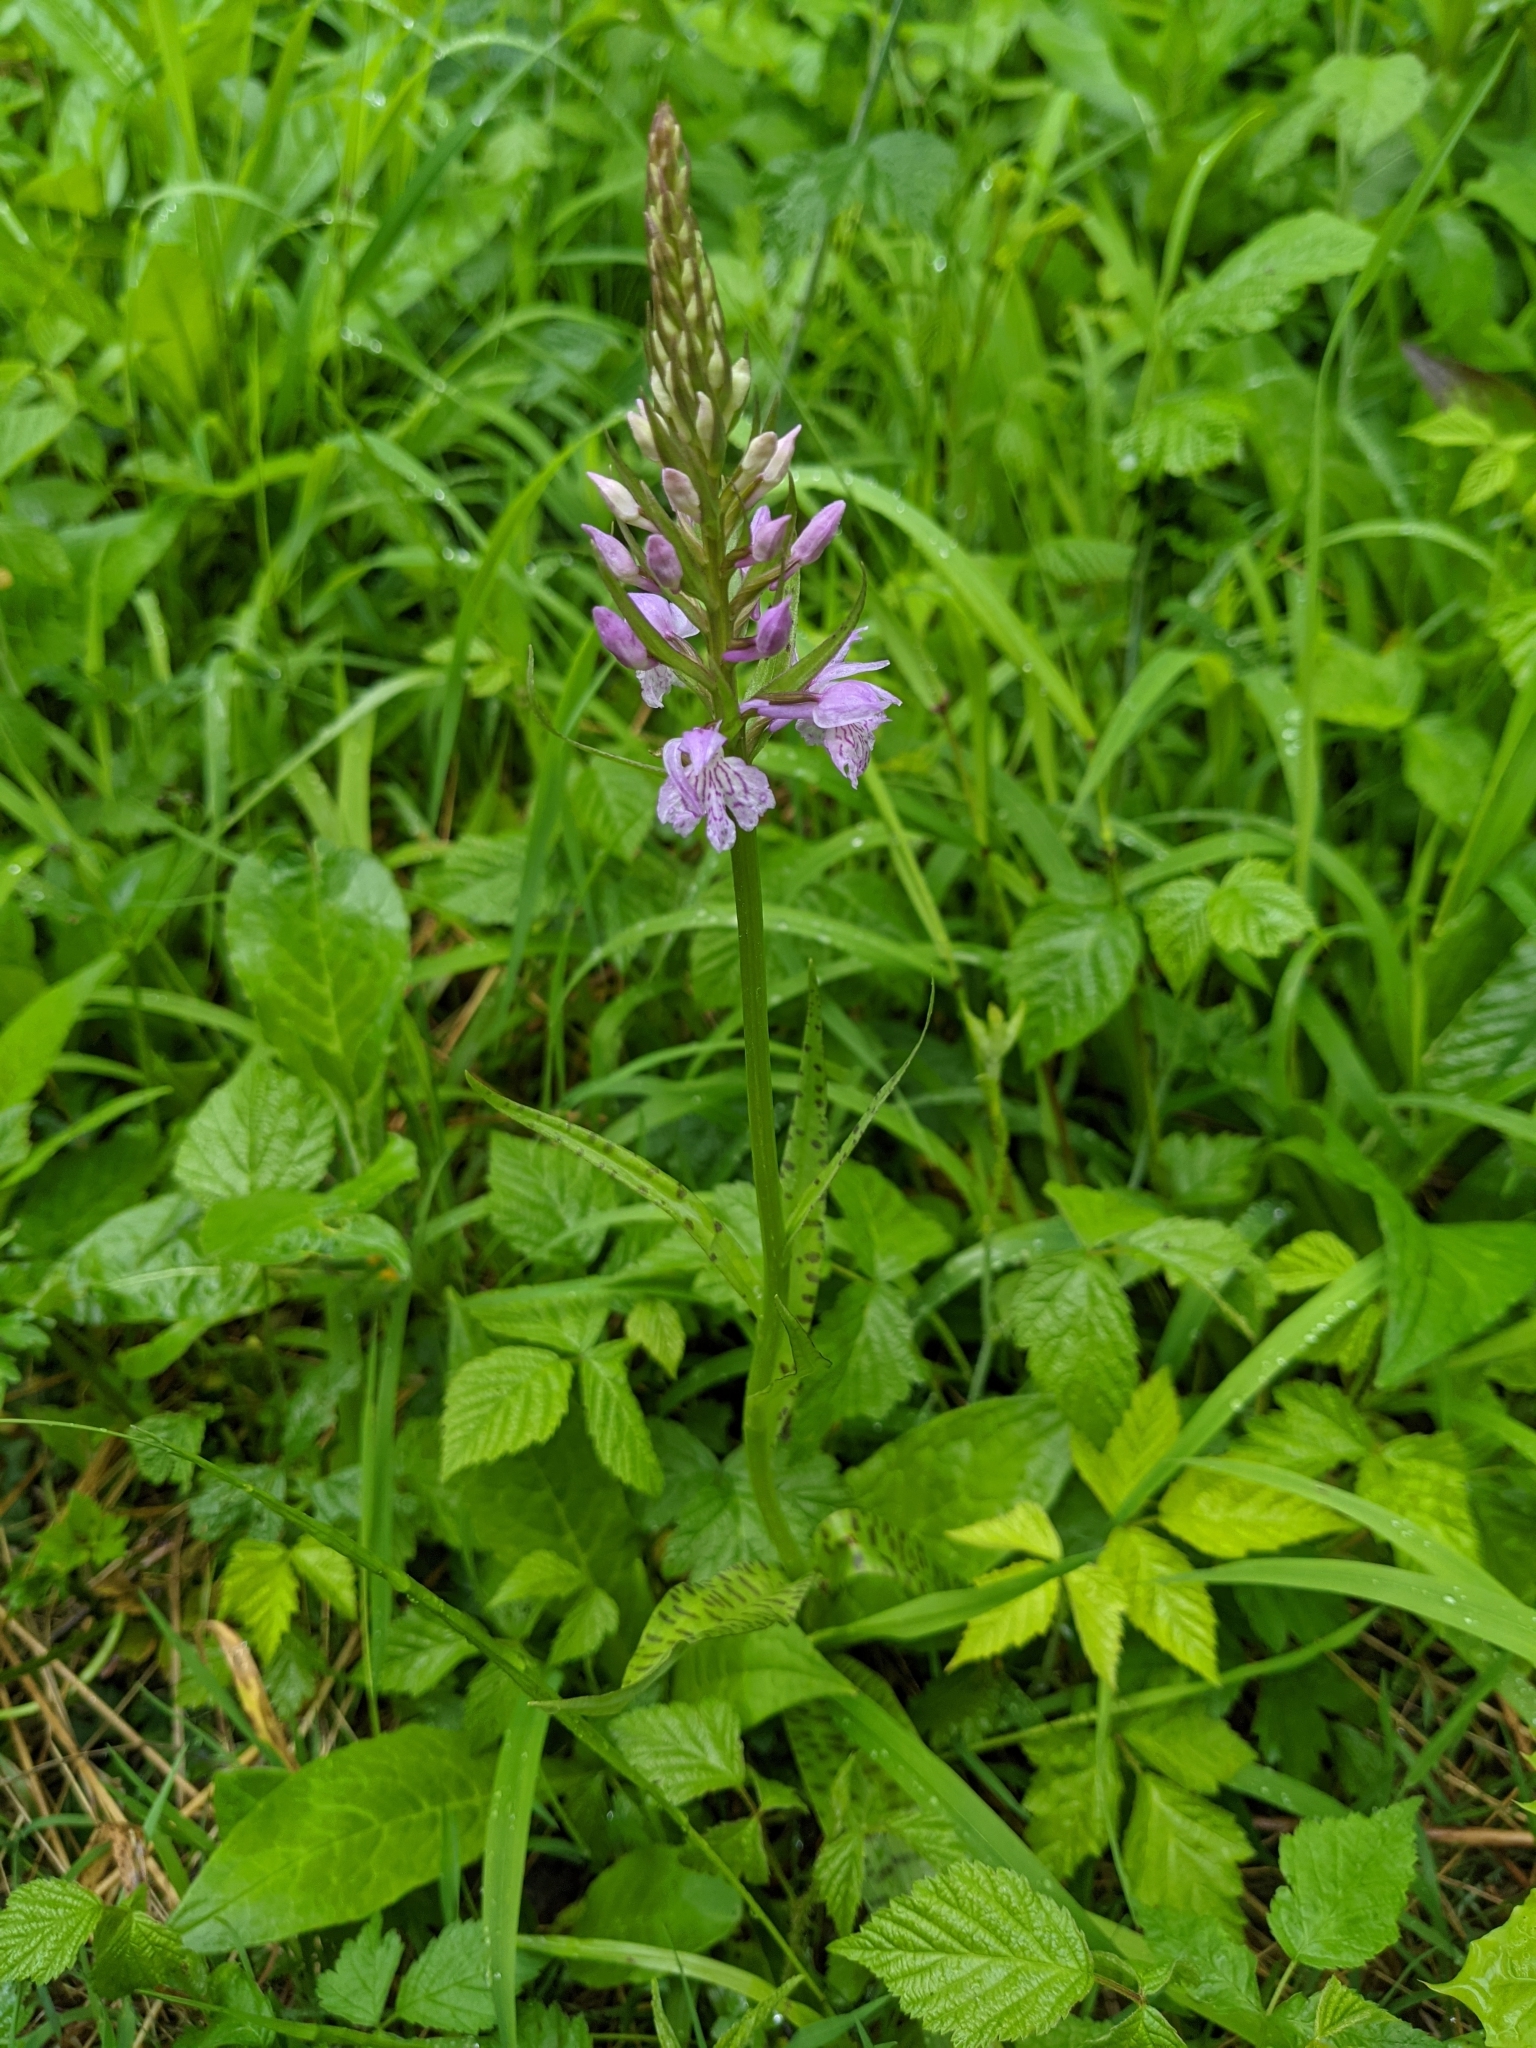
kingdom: Plantae
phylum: Tracheophyta
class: Liliopsida
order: Asparagales
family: Orchidaceae
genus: Dactylorhiza
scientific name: Dactylorhiza maculata
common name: Heath spotted-orchid
